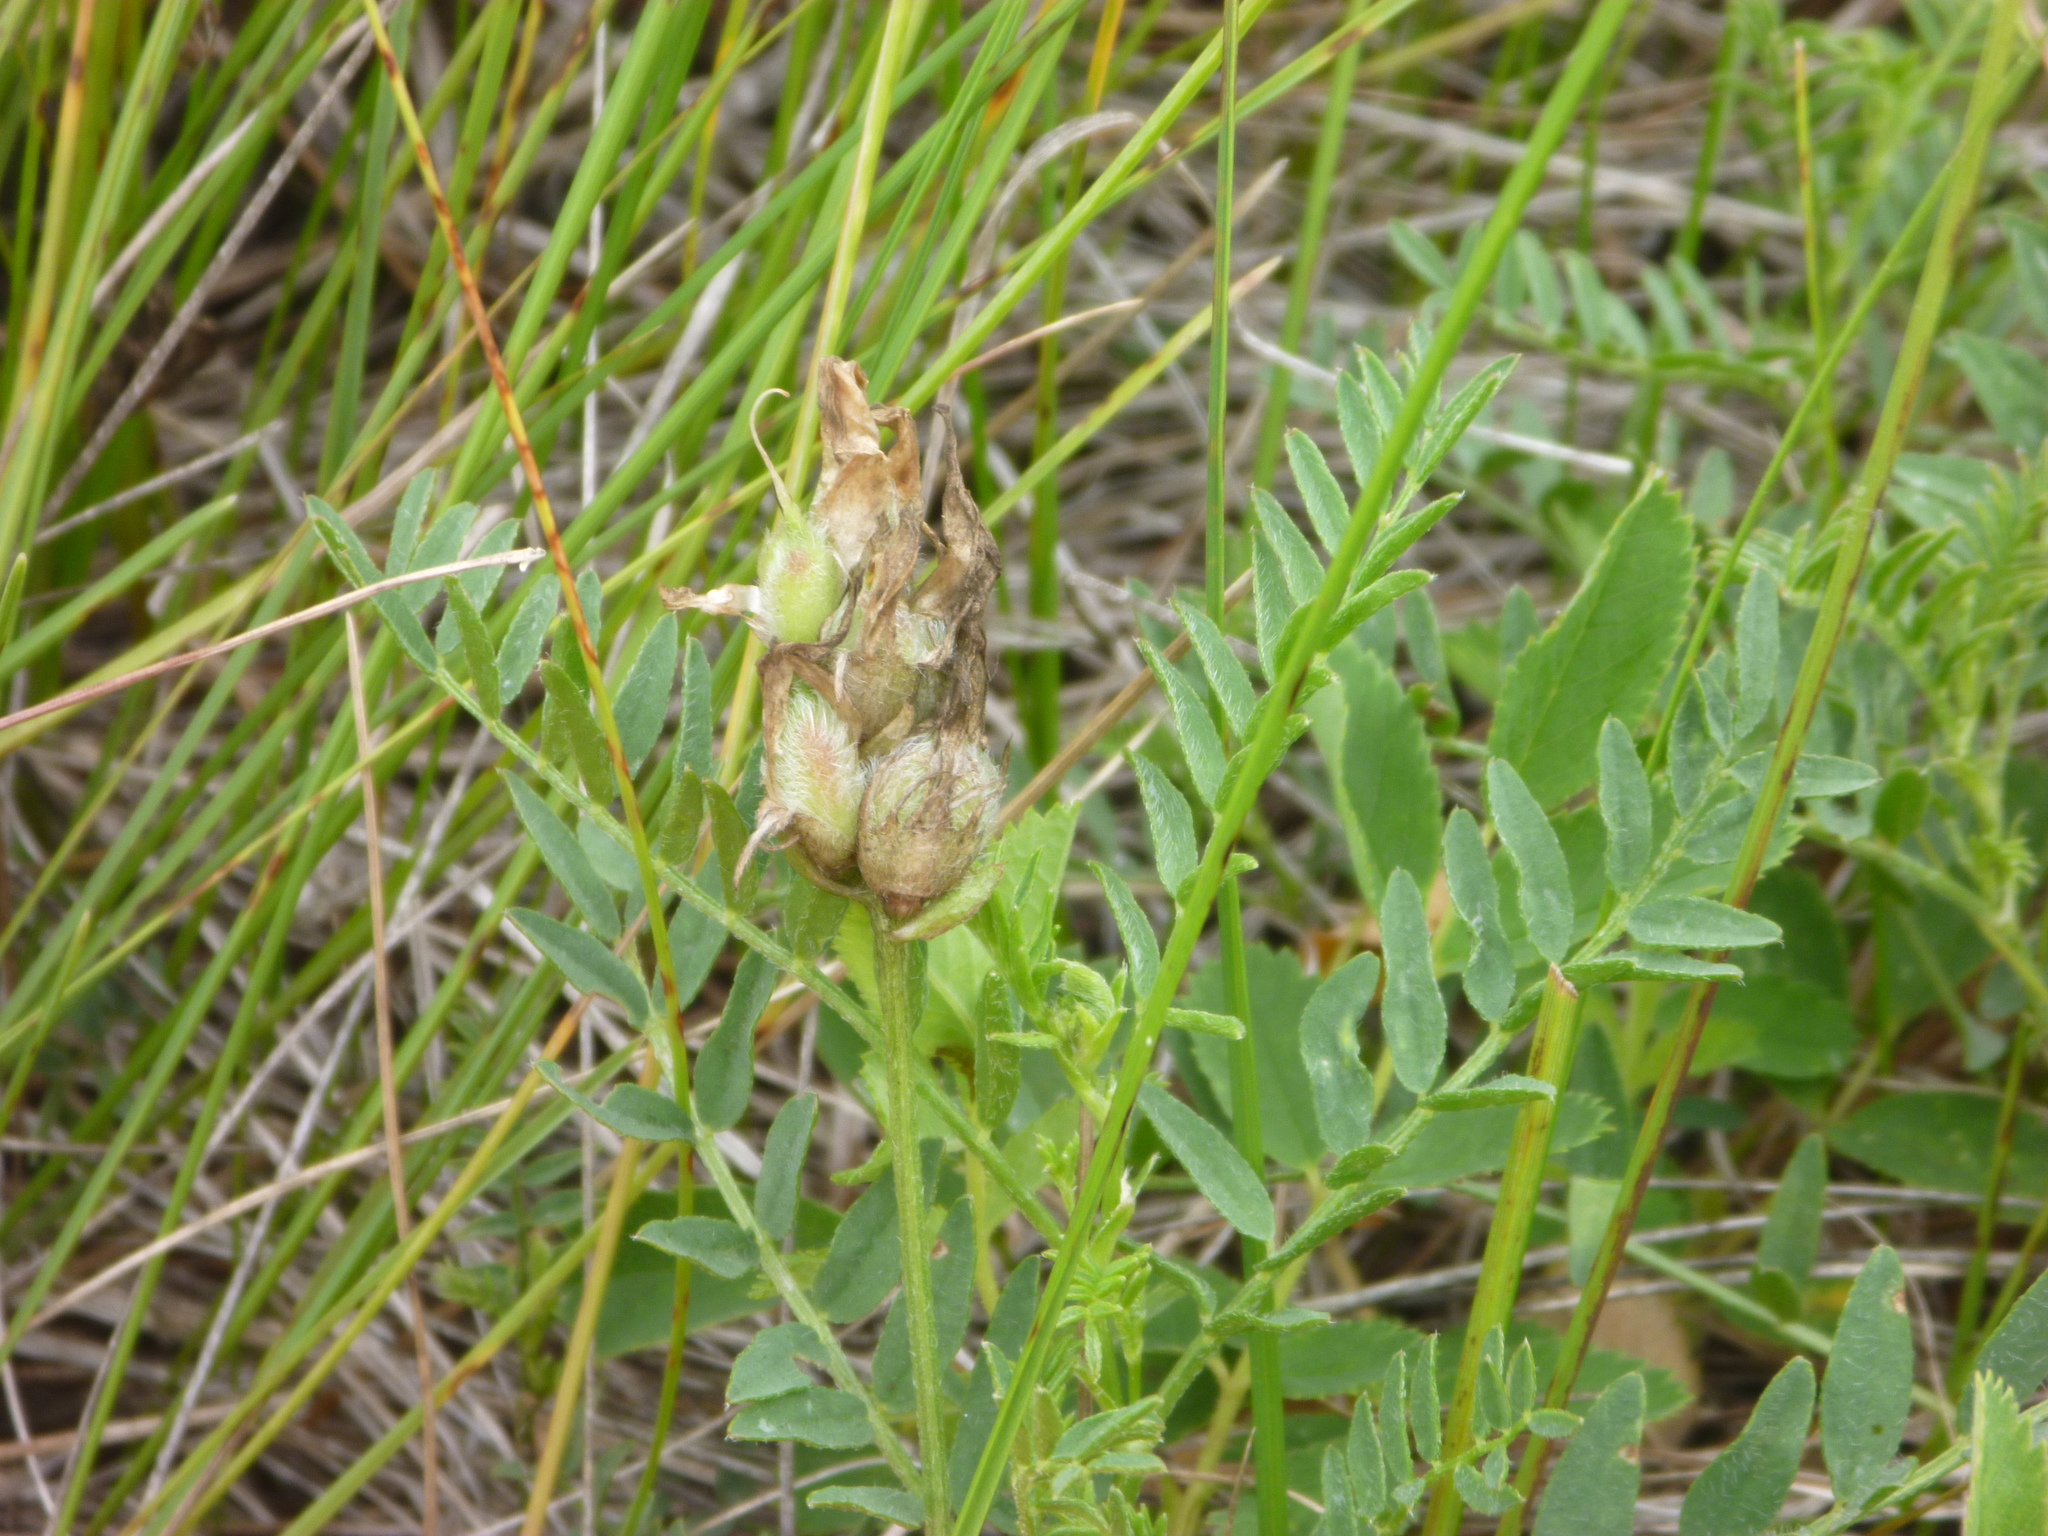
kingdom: Plantae
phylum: Tracheophyta
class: Magnoliopsida
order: Fabales
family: Fabaceae
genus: Astragalus
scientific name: Astragalus cicer
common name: Chick-pea milk-vetch
